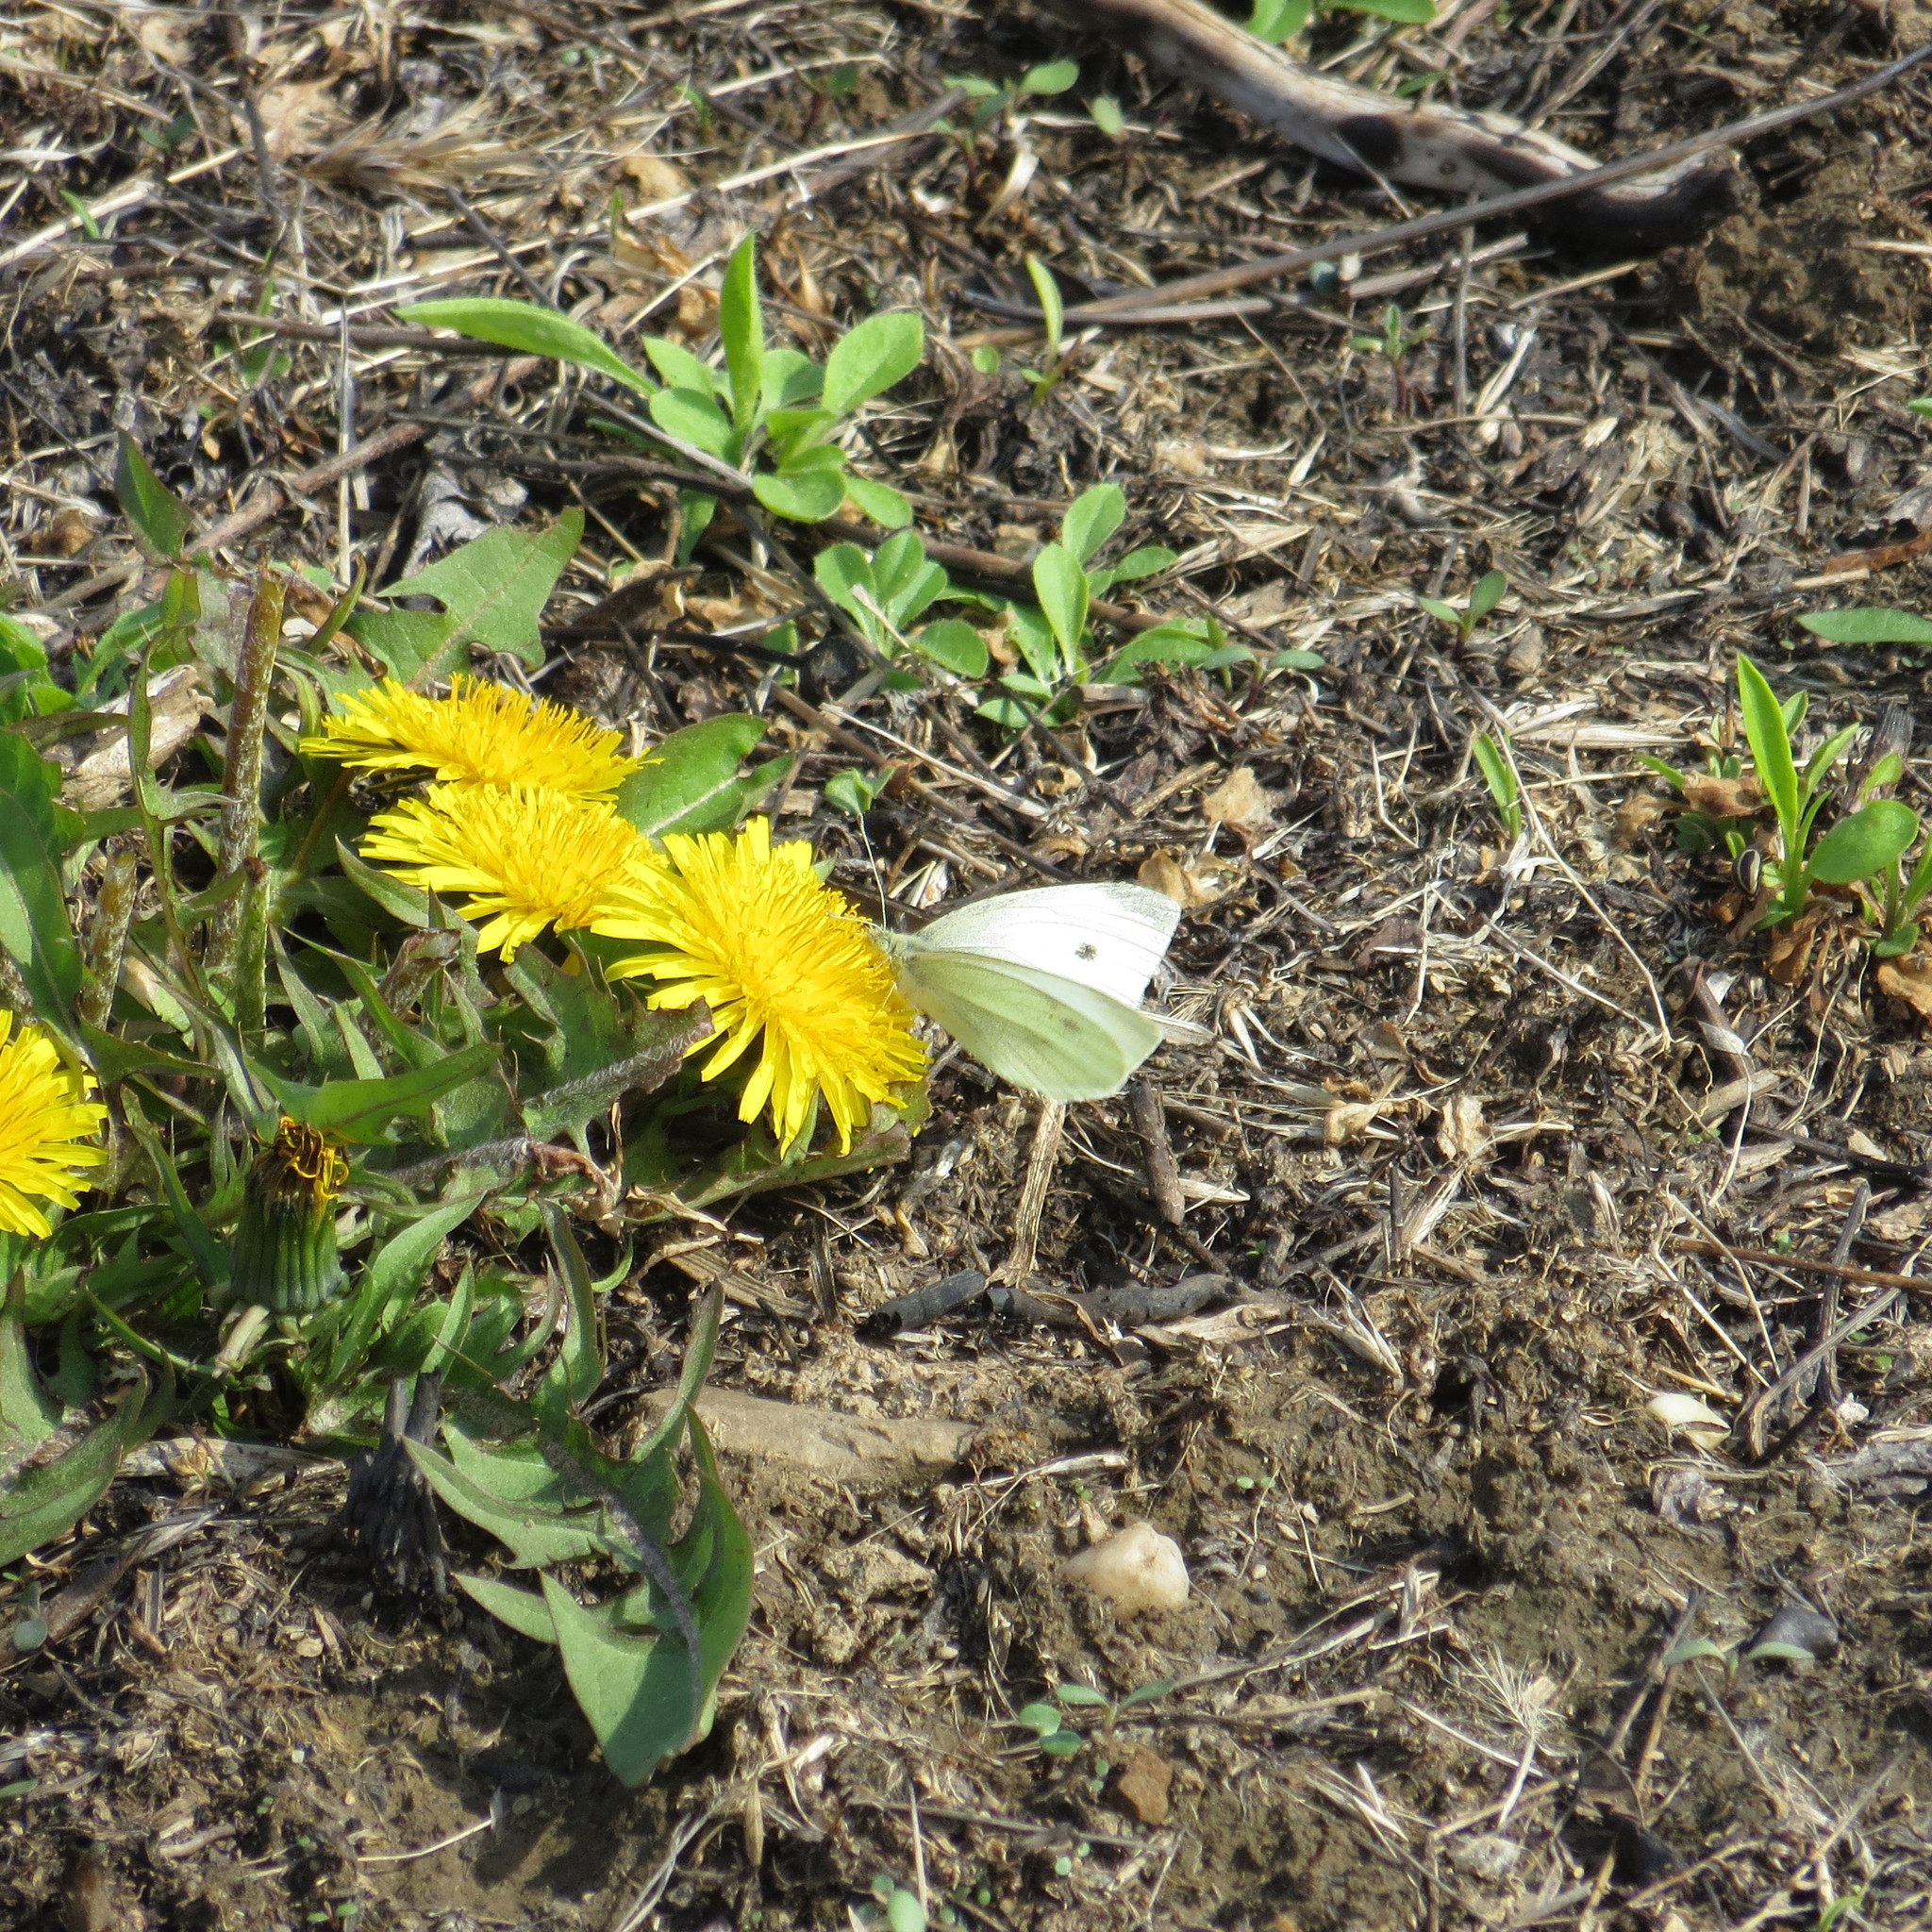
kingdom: Animalia
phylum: Arthropoda
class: Insecta
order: Lepidoptera
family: Pieridae
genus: Pieris
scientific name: Pieris rapae
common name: Small white
